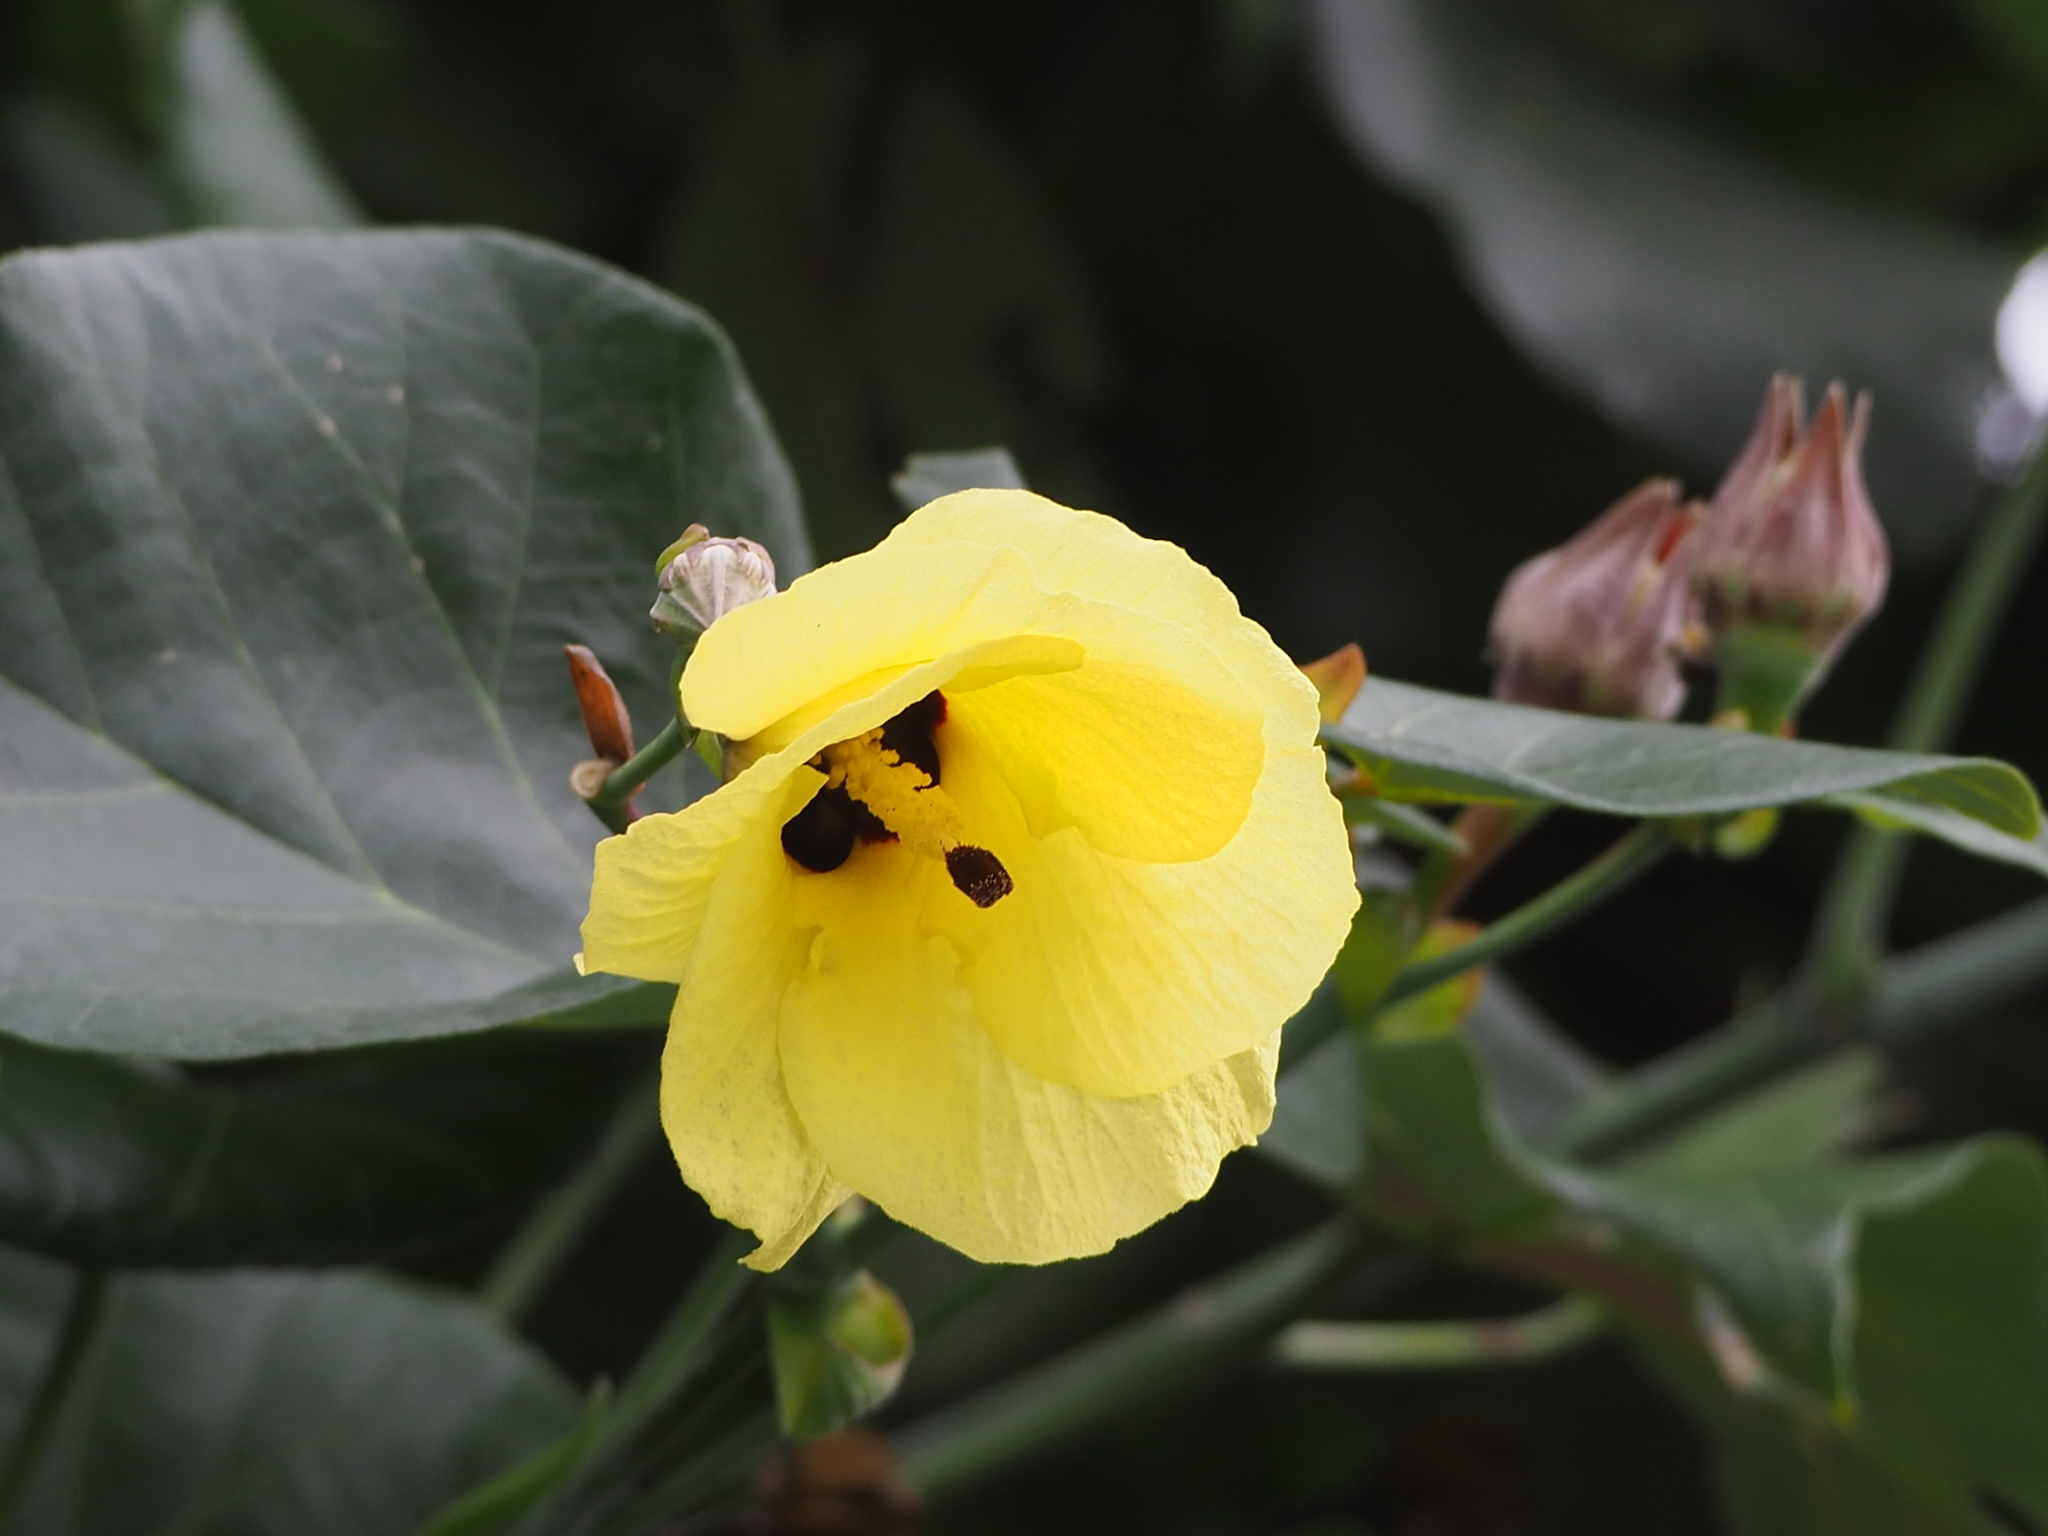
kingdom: Plantae
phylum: Tracheophyta
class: Magnoliopsida
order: Malvales
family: Malvaceae
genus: Talipariti
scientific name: Talipariti tiliaceum
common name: Sea hibiscus
